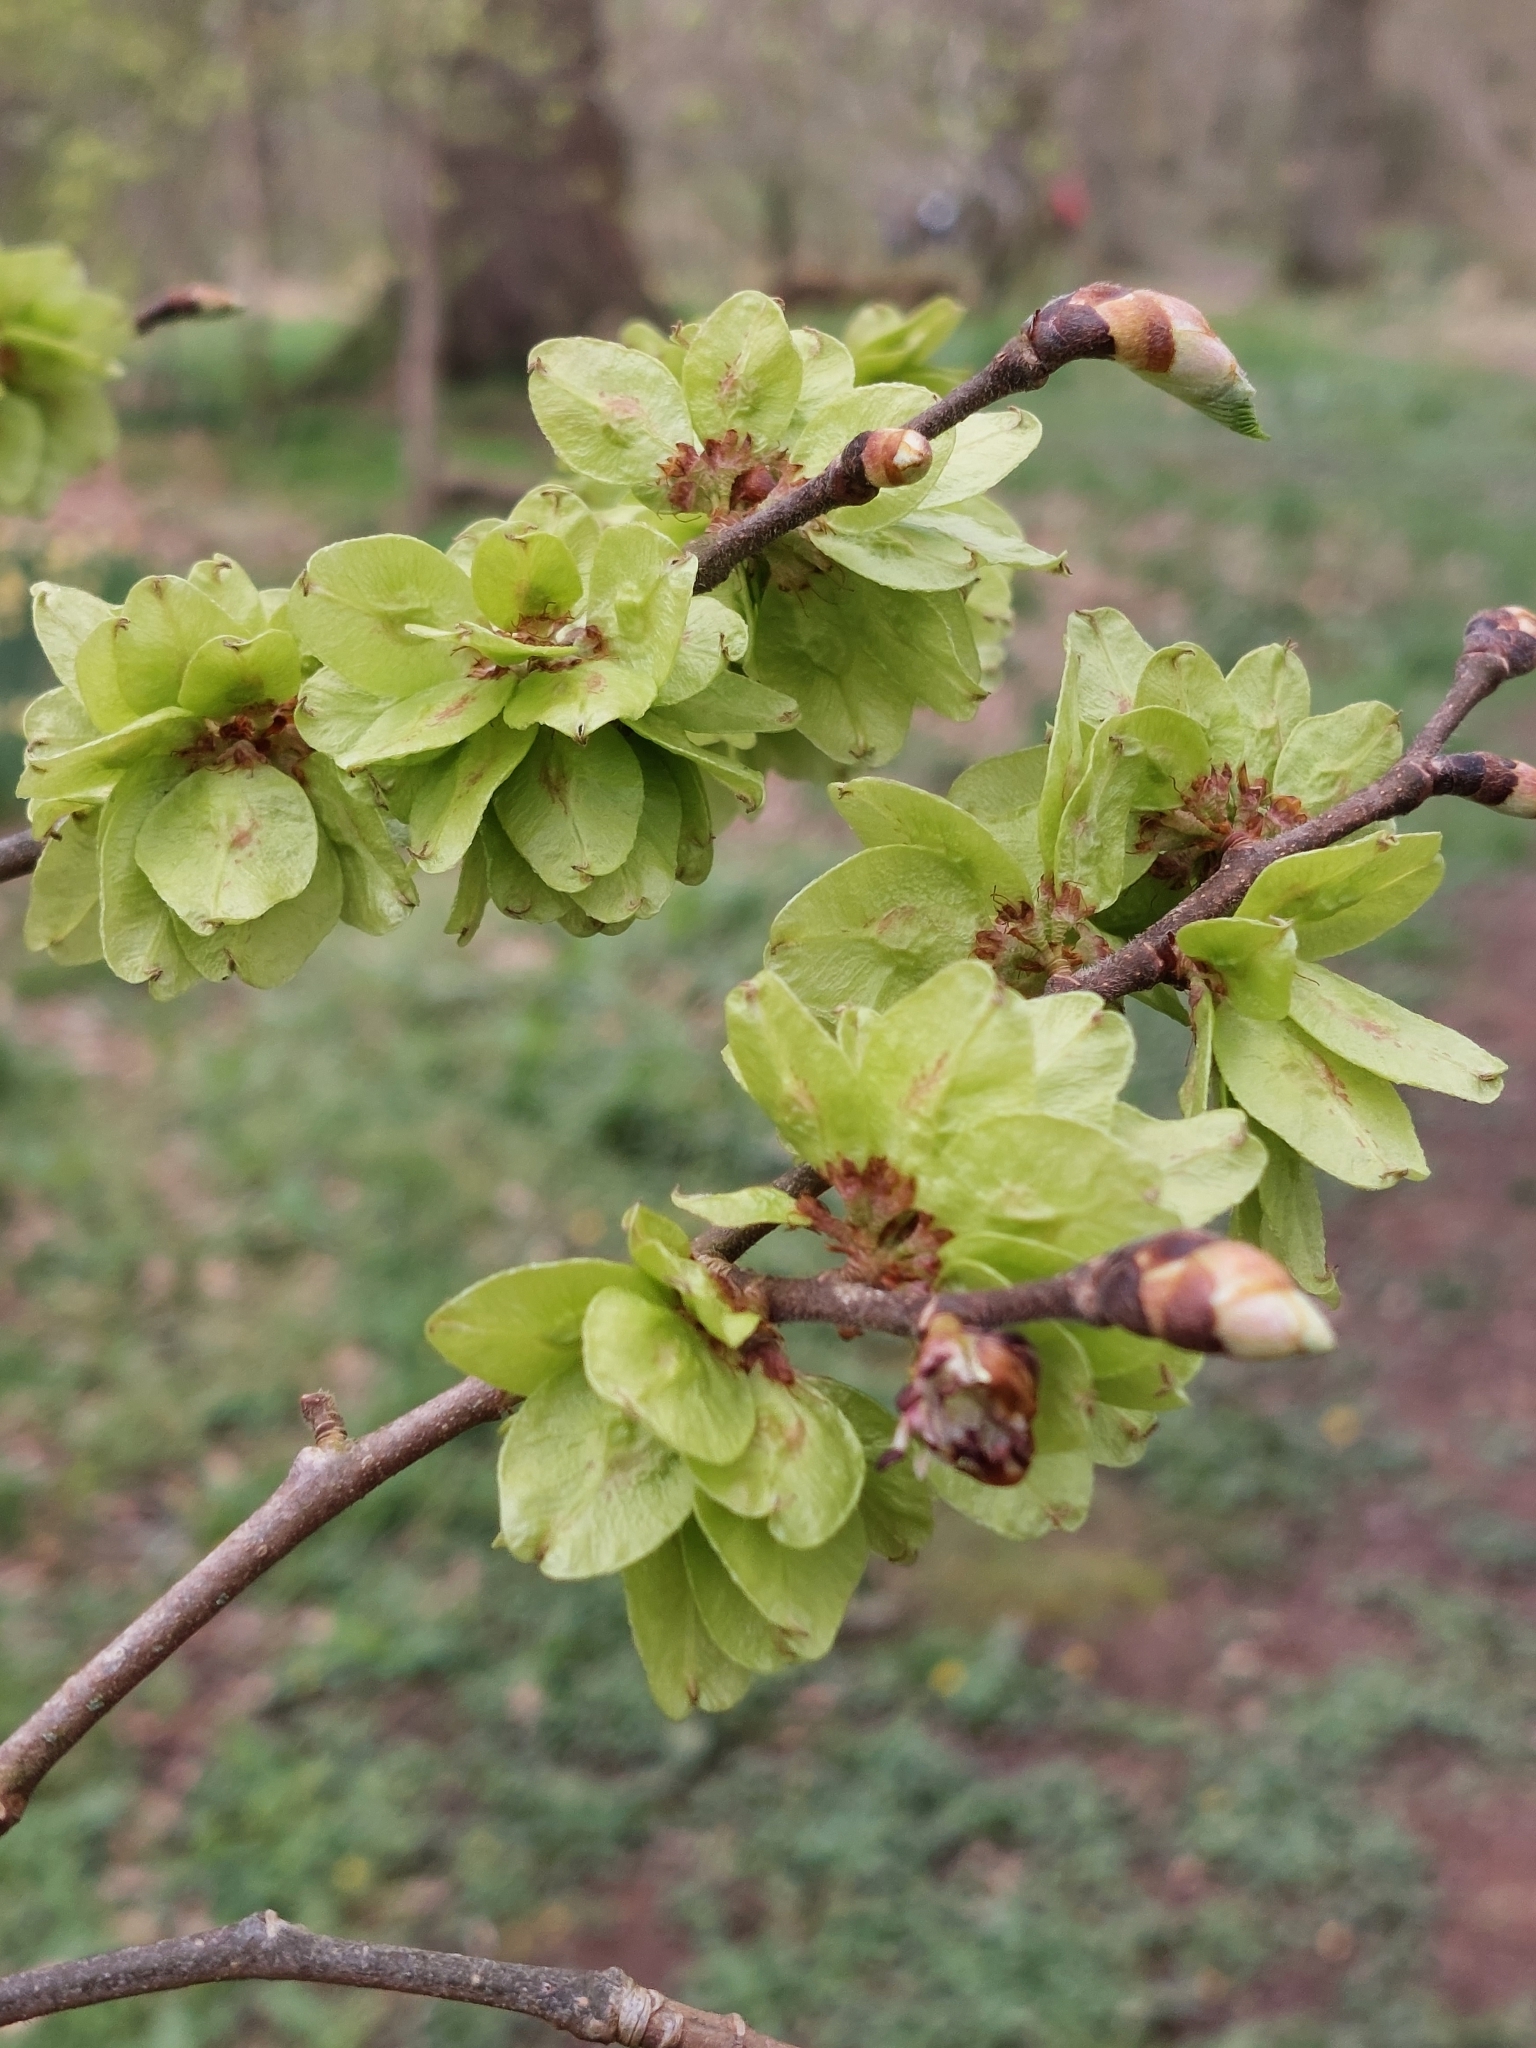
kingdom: Plantae
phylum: Tracheophyta
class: Magnoliopsida
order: Rosales
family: Ulmaceae
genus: Ulmus
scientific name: Ulmus glabra
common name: Wych elm
